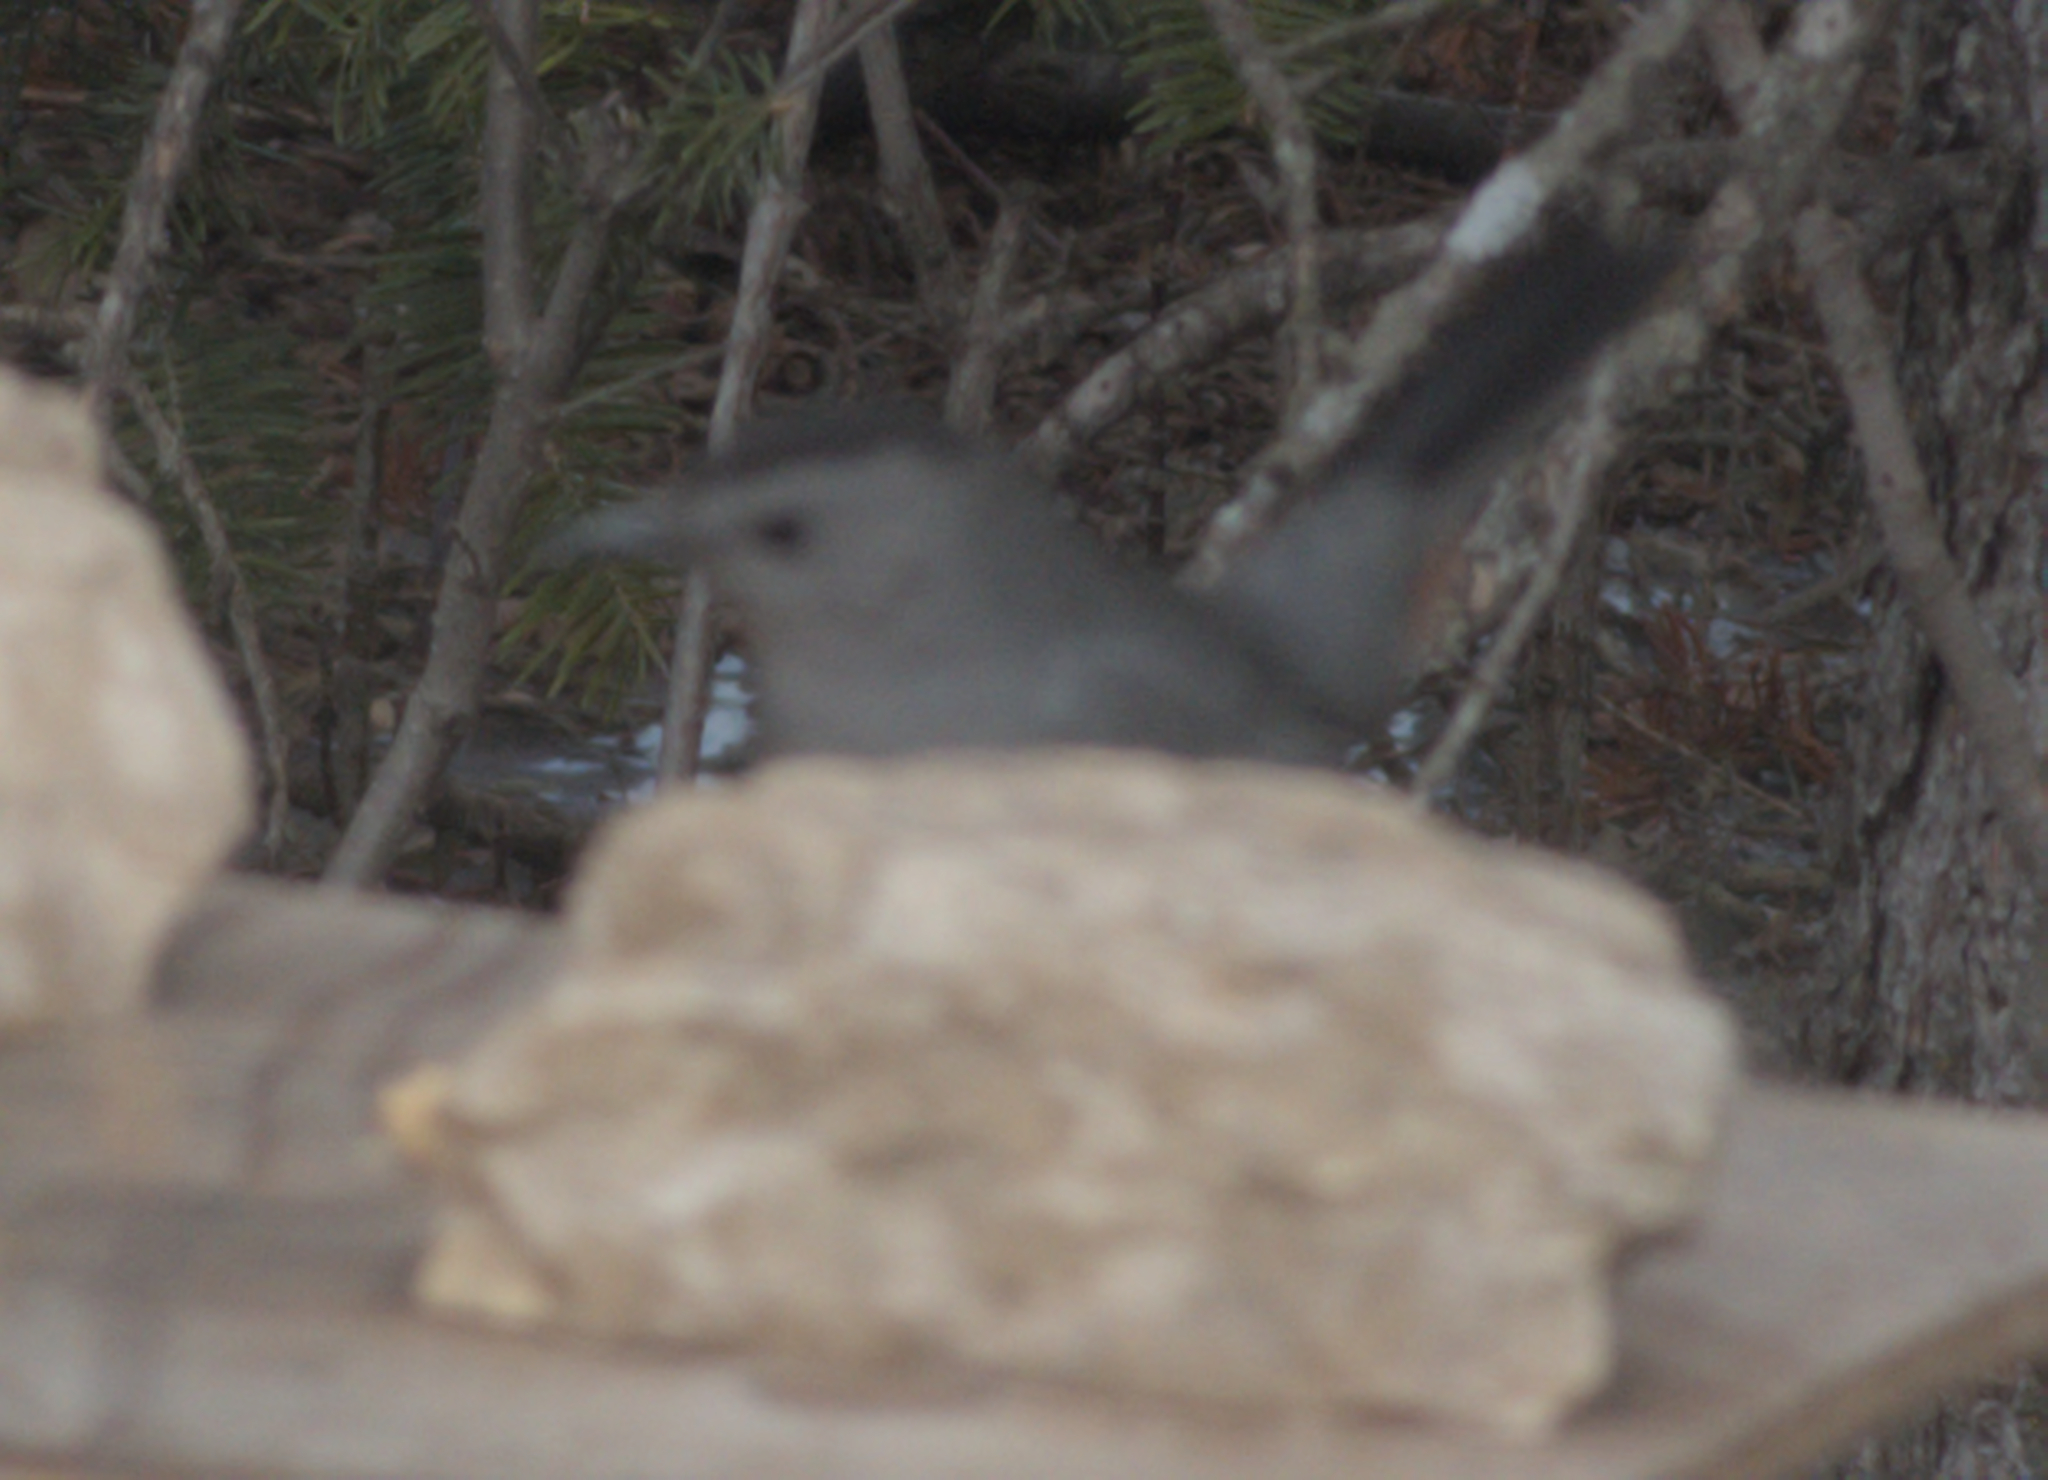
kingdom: Animalia
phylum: Chordata
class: Aves
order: Passeriformes
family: Mimidae
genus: Dumetella
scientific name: Dumetella carolinensis
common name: Gray catbird
